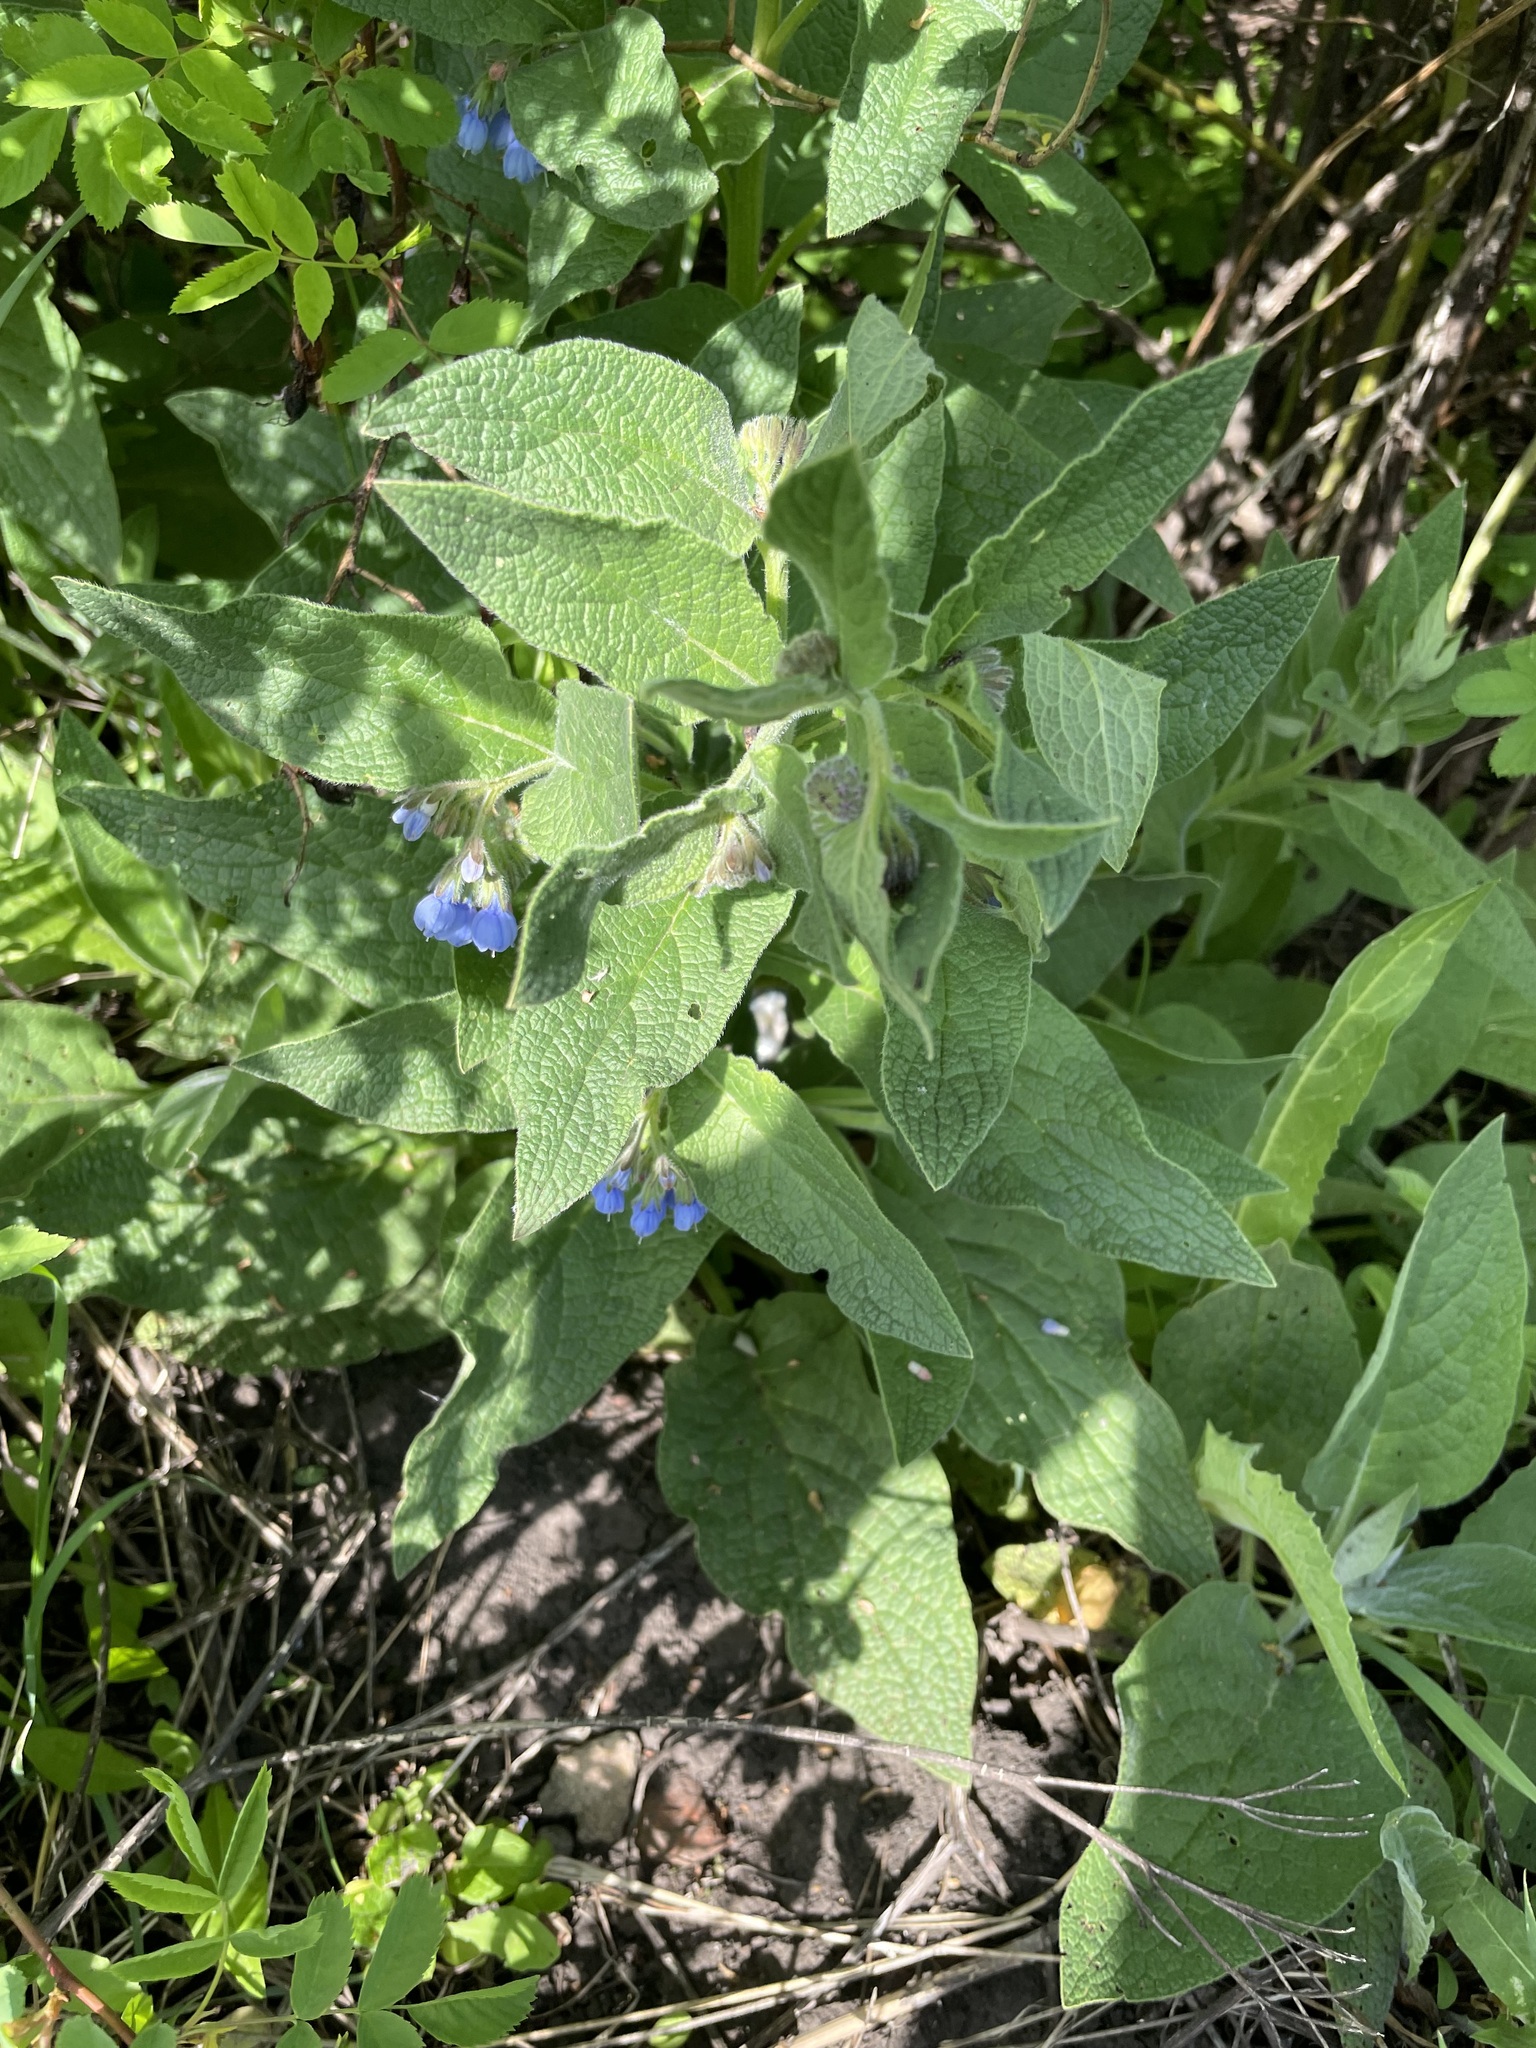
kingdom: Plantae
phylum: Tracheophyta
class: Magnoliopsida
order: Boraginales
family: Boraginaceae
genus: Symphytum
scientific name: Symphytum caucasicum
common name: Caucasian comfrey
